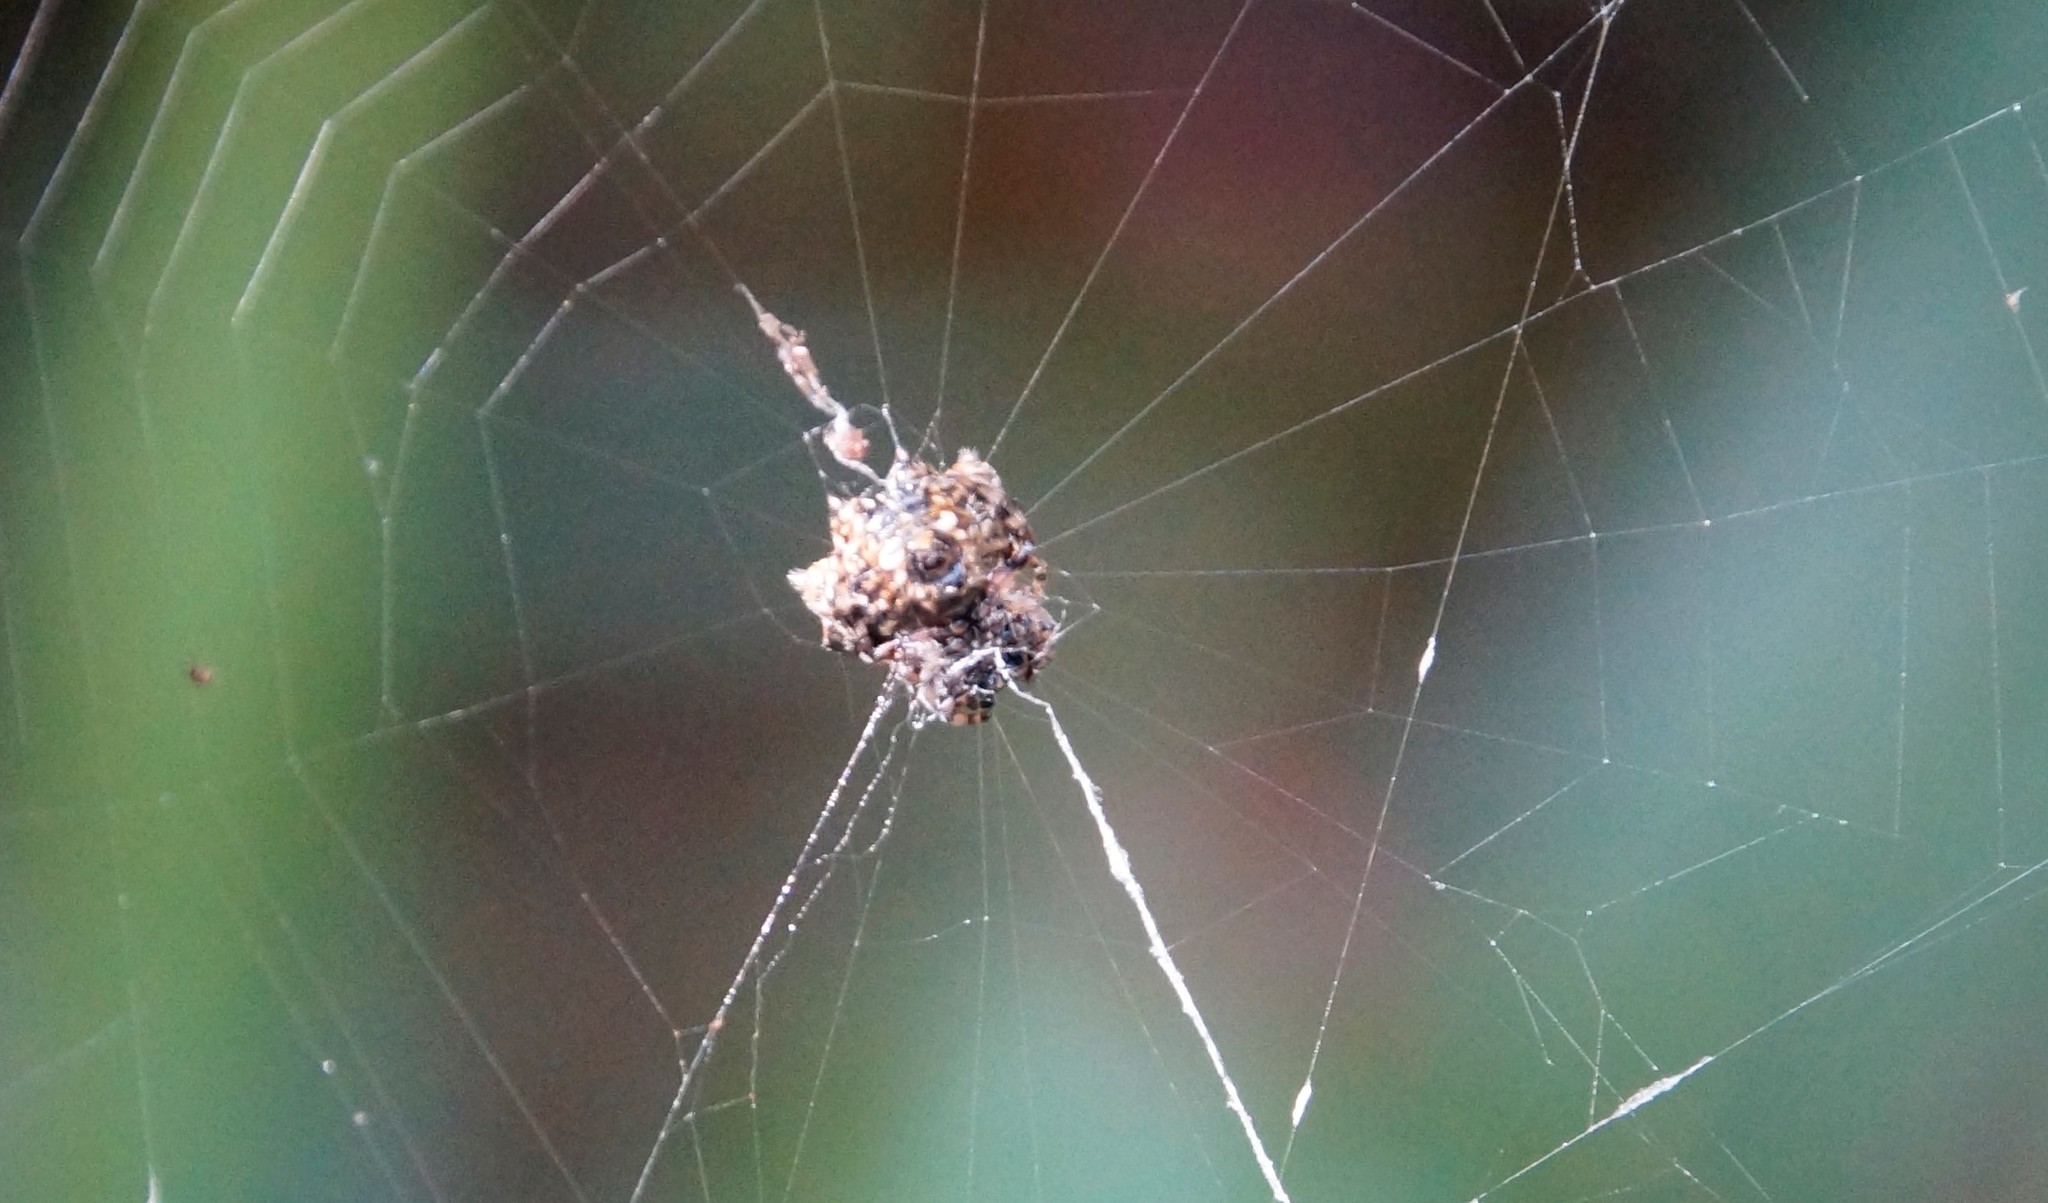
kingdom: Animalia
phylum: Arthropoda
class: Arachnida
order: Araneae
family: Araneidae
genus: Gasteracantha
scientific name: Gasteracantha sacerdotalis
